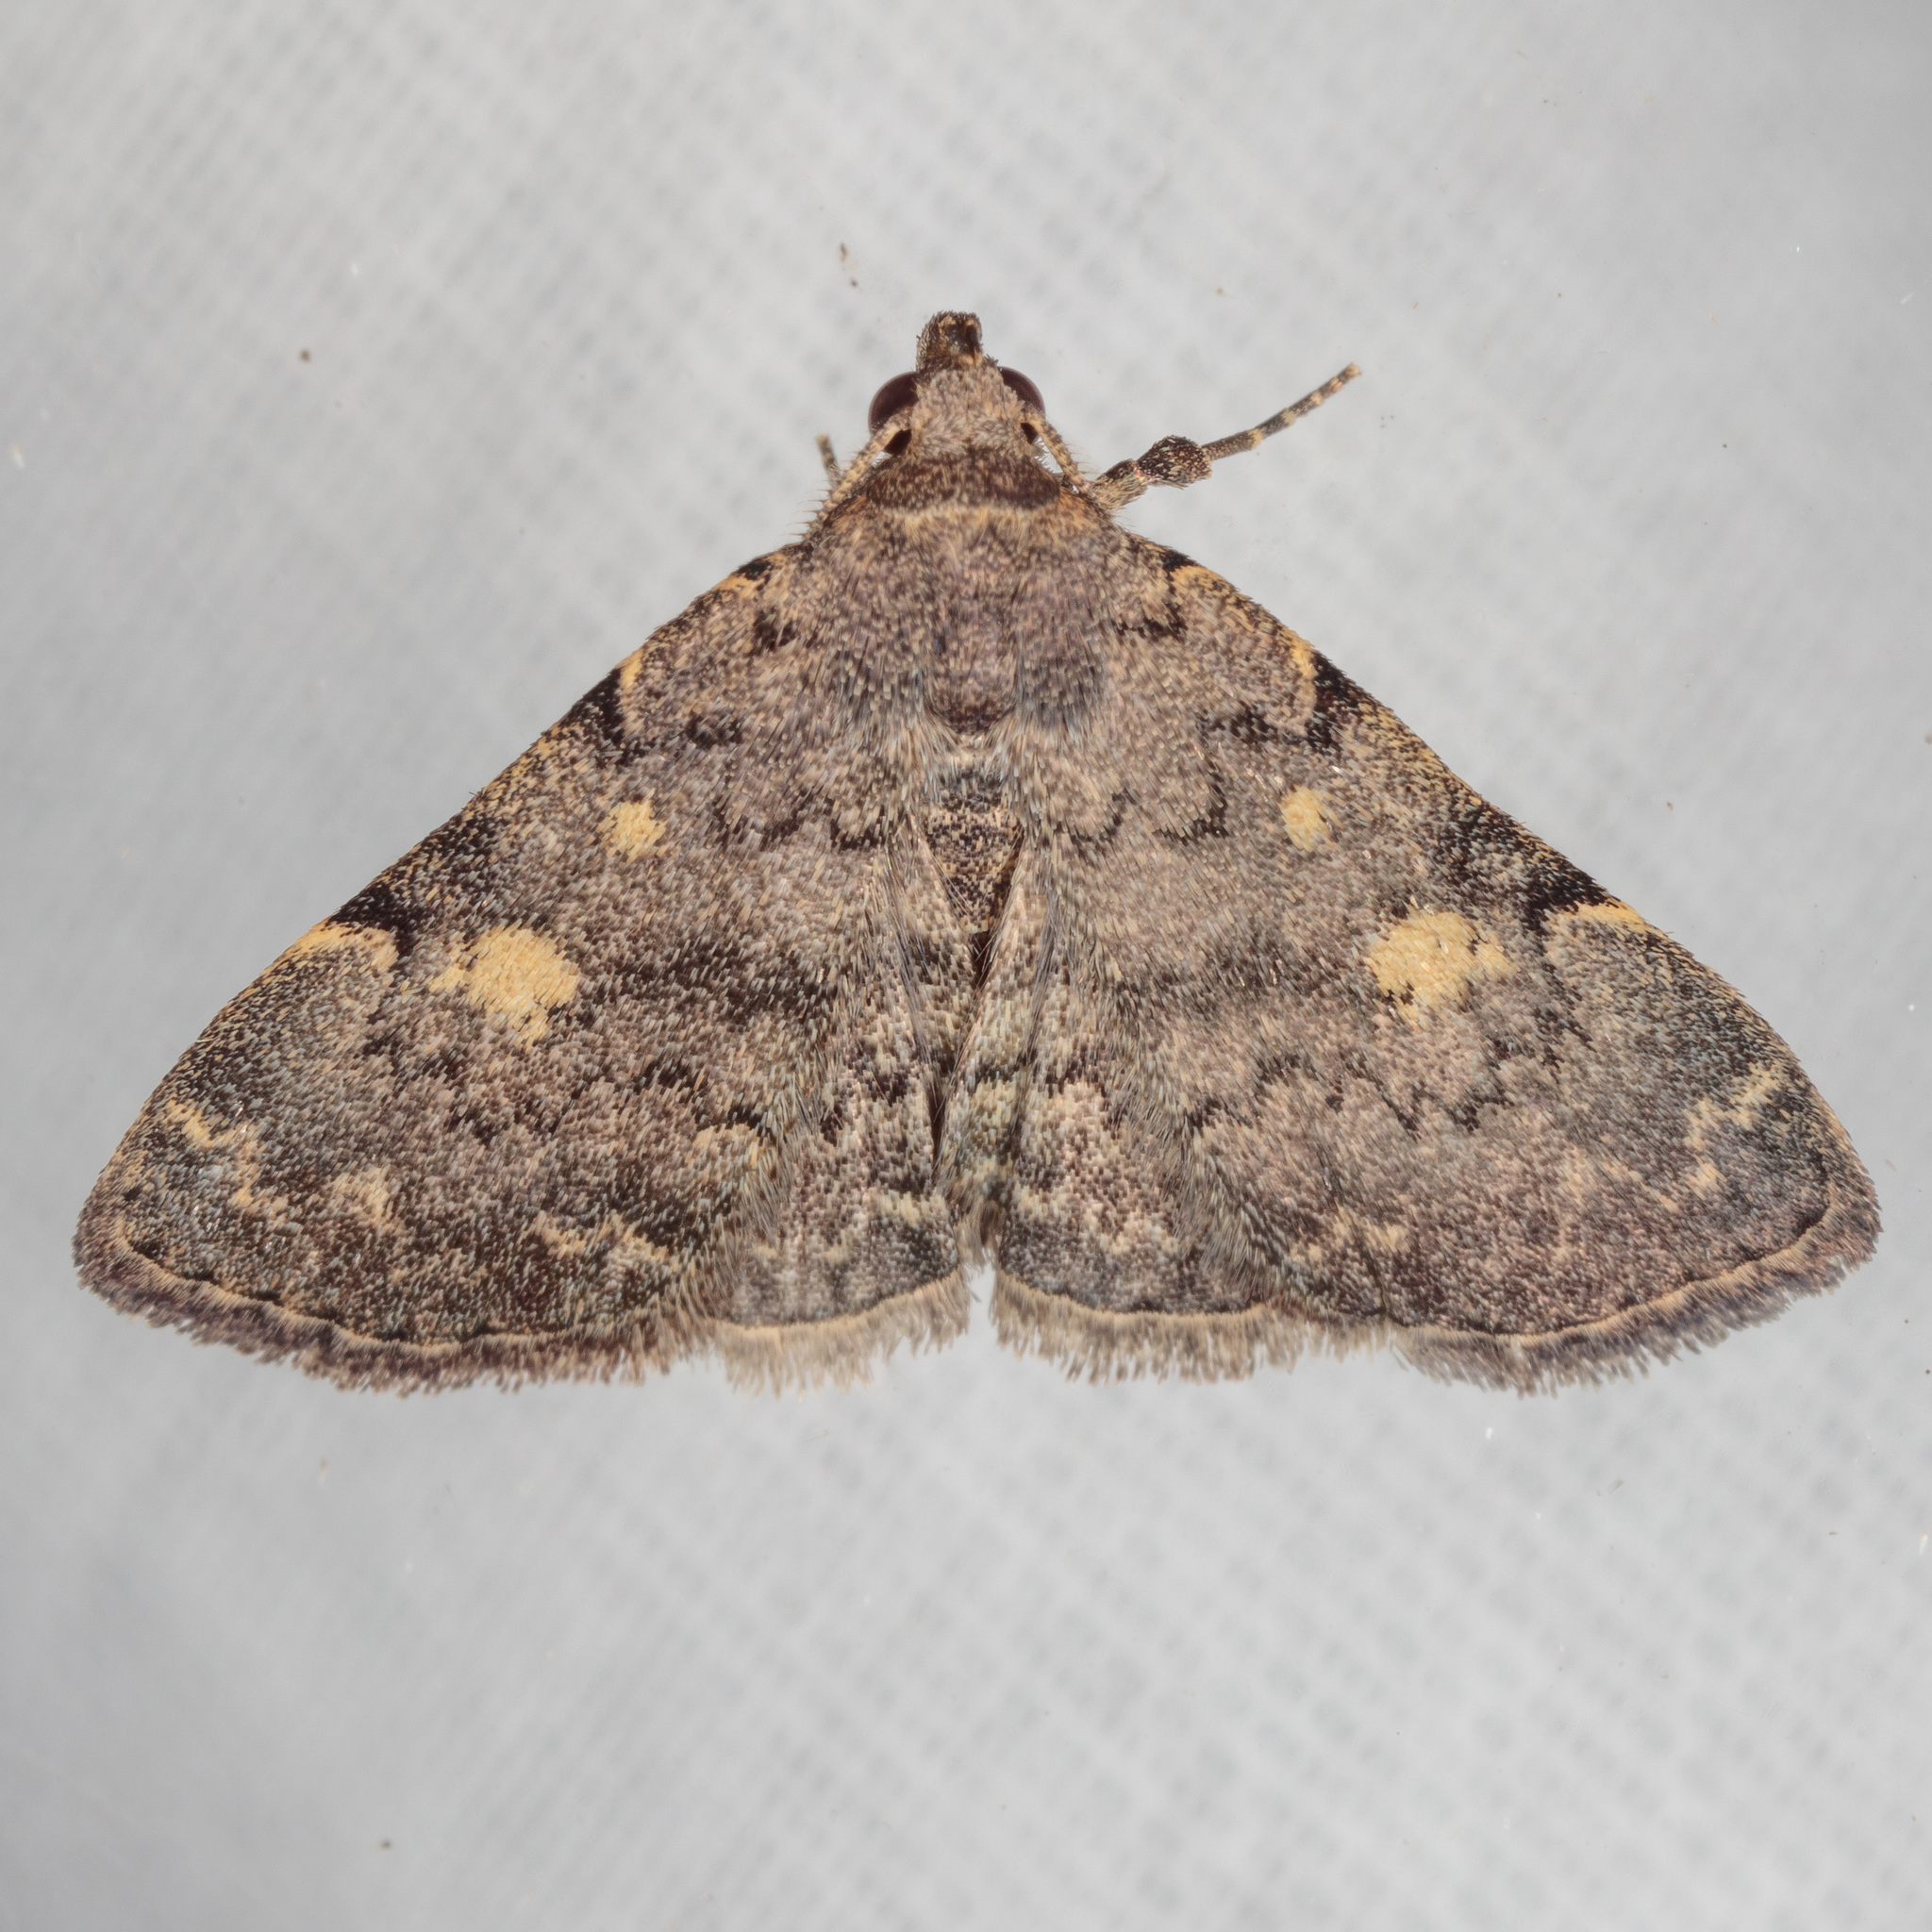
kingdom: Animalia
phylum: Arthropoda
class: Insecta
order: Lepidoptera
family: Erebidae
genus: Idia
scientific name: Idia aemula
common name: Common idia moth
